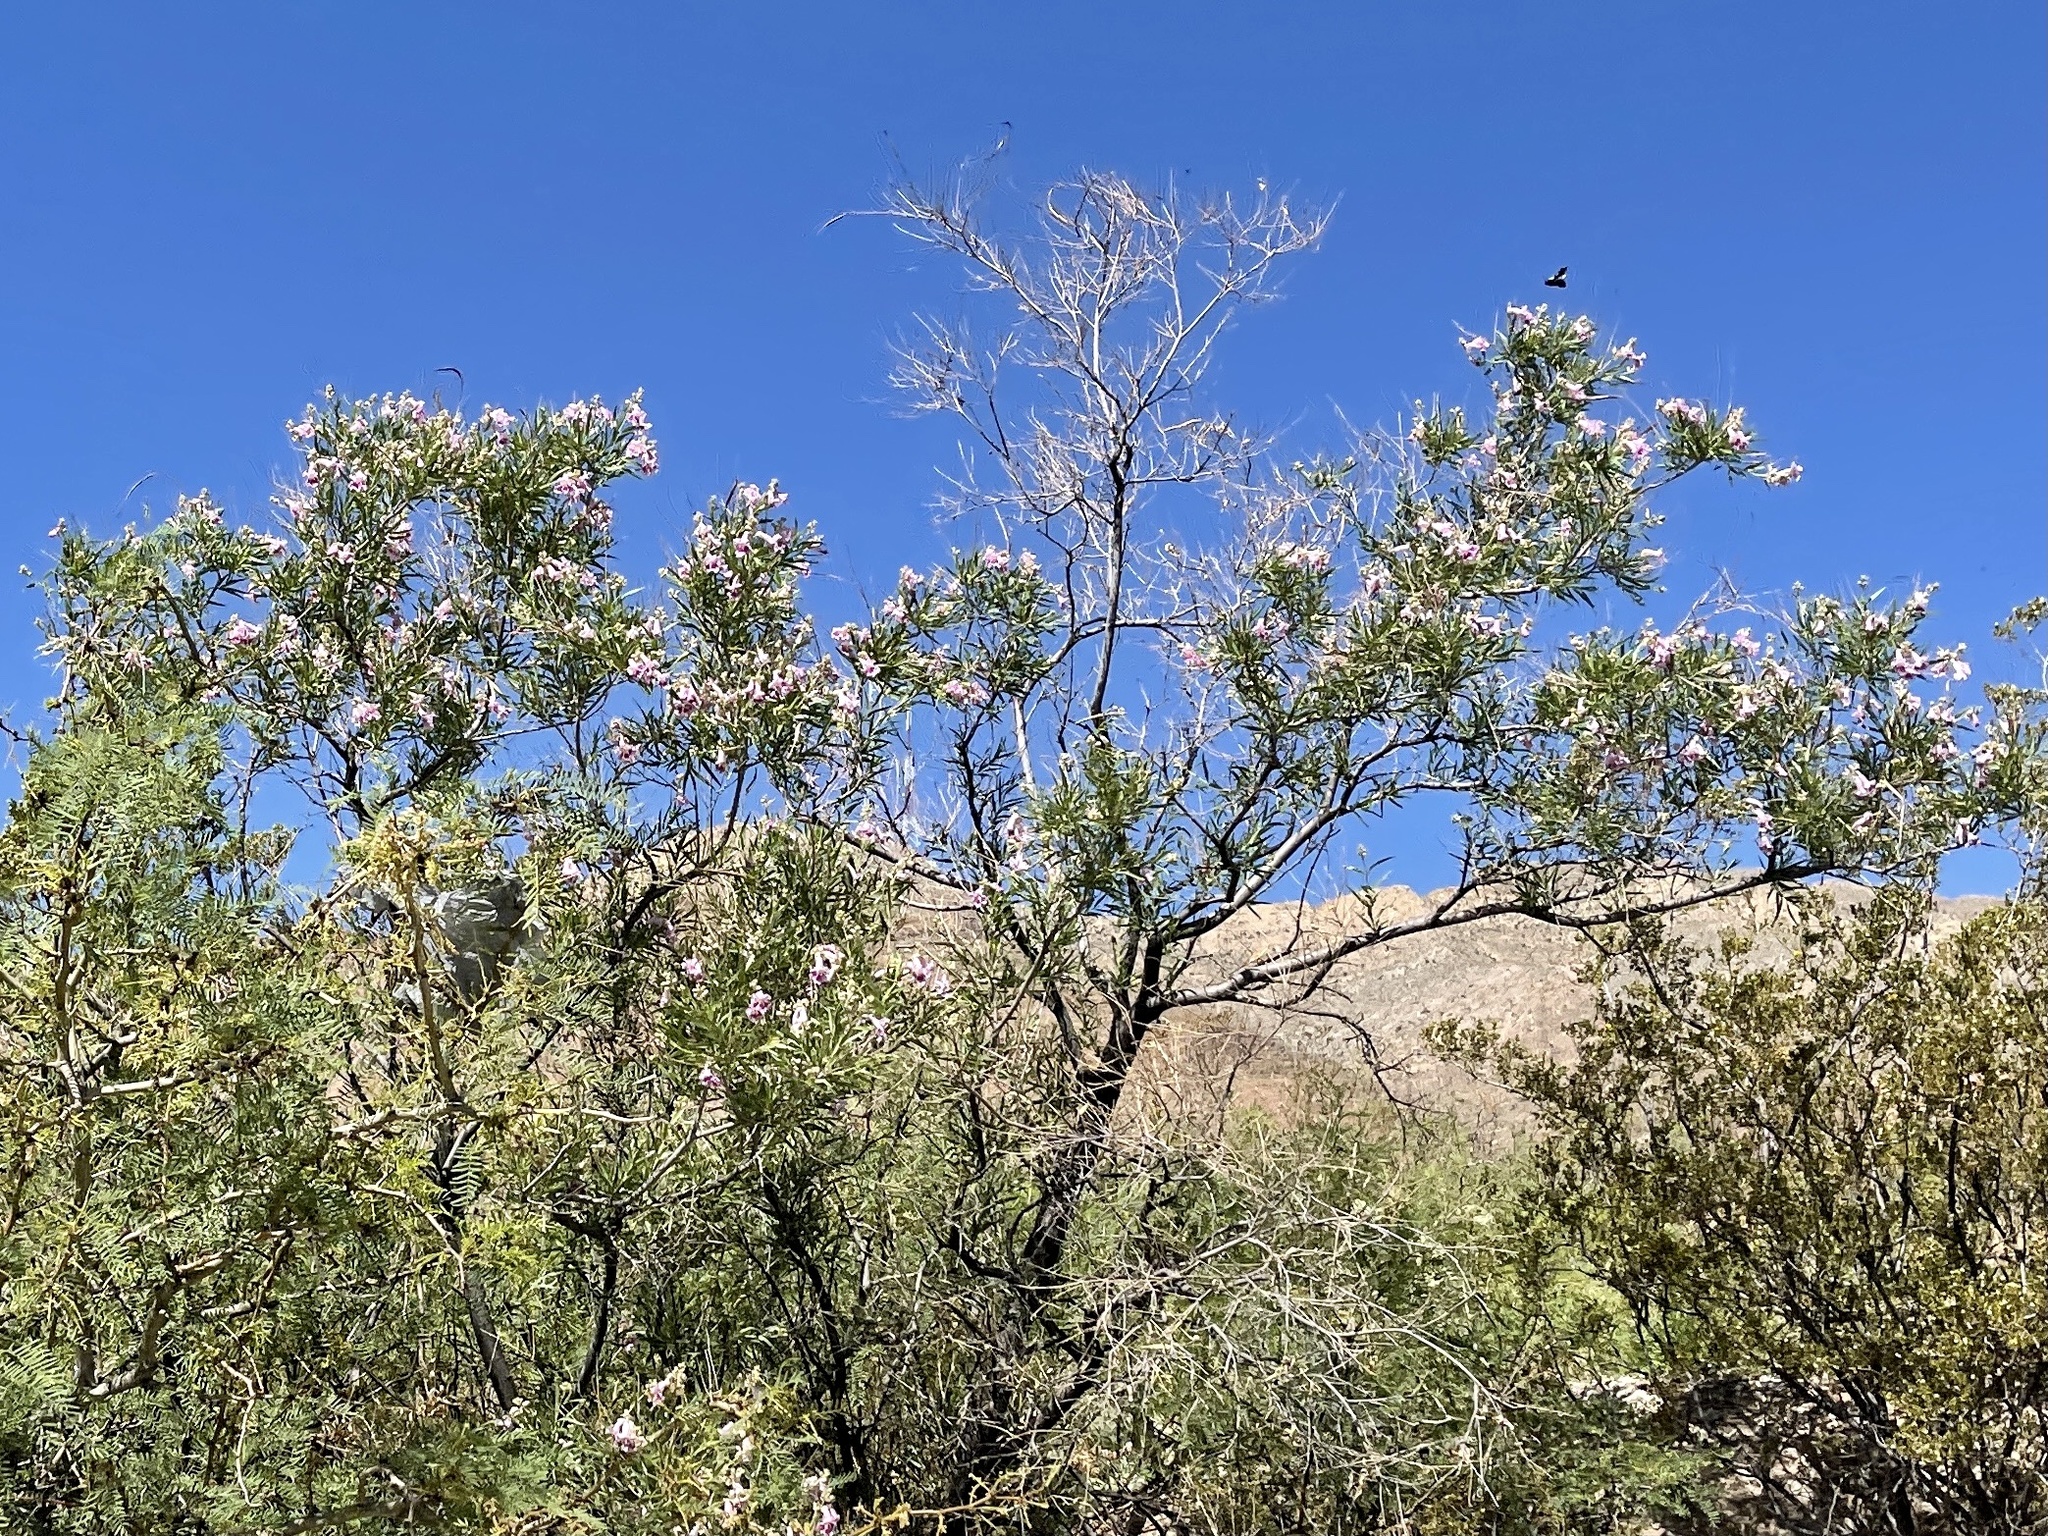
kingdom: Plantae
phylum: Tracheophyta
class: Magnoliopsida
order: Lamiales
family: Bignoniaceae
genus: Chilopsis
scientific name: Chilopsis linearis
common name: Desert-willow
